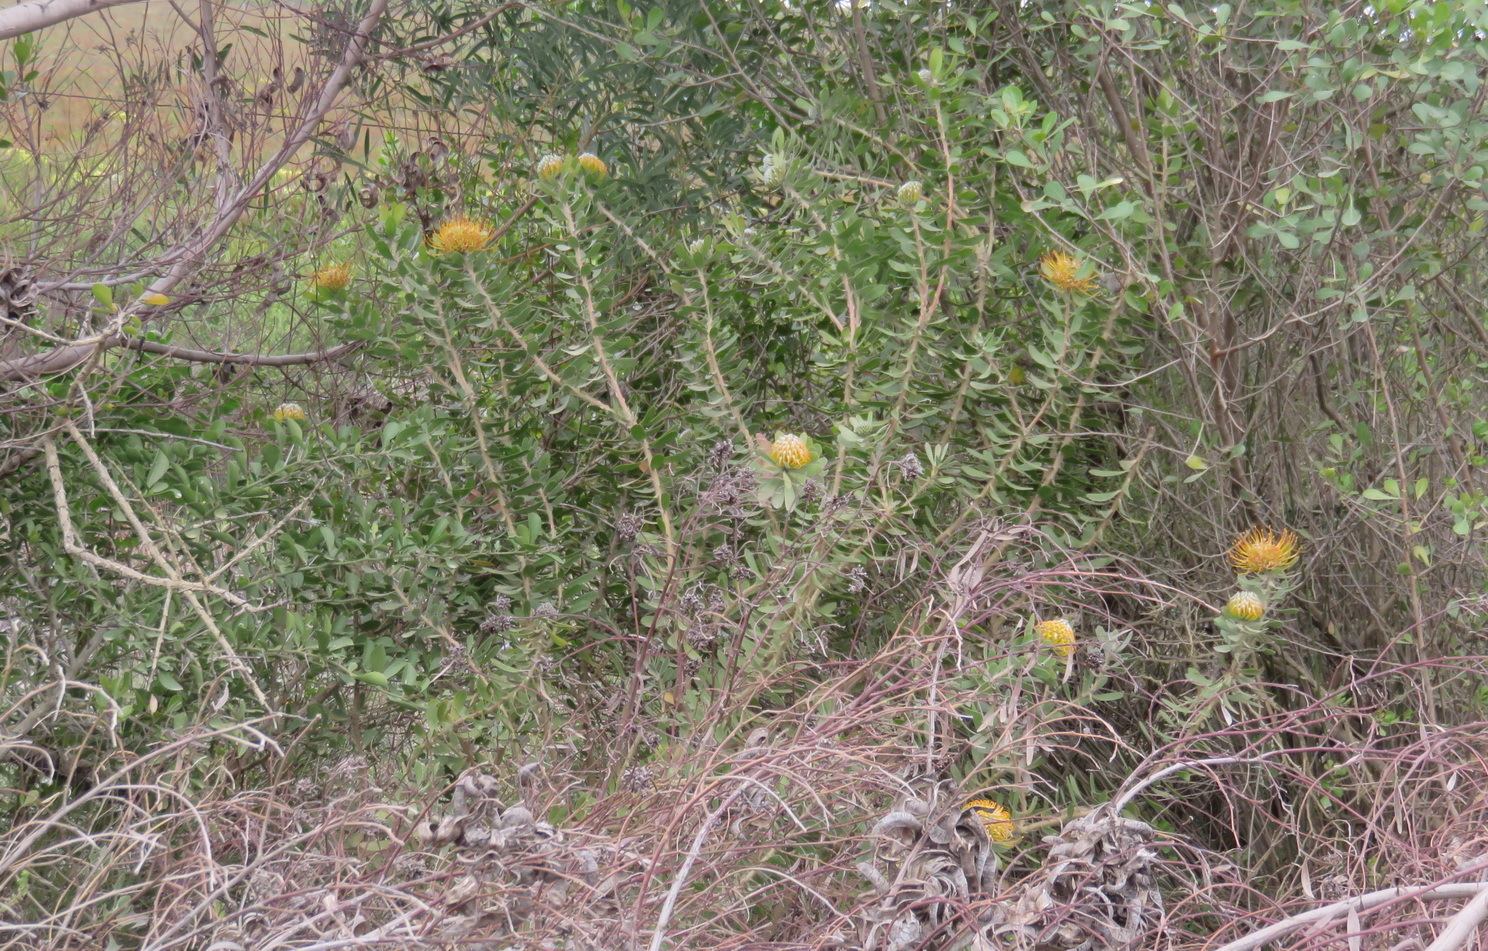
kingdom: Plantae
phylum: Tracheophyta
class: Magnoliopsida
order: Proteales
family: Proteaceae
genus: Leucospermum
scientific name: Leucospermum praecox
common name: Mossel bay pincushion
